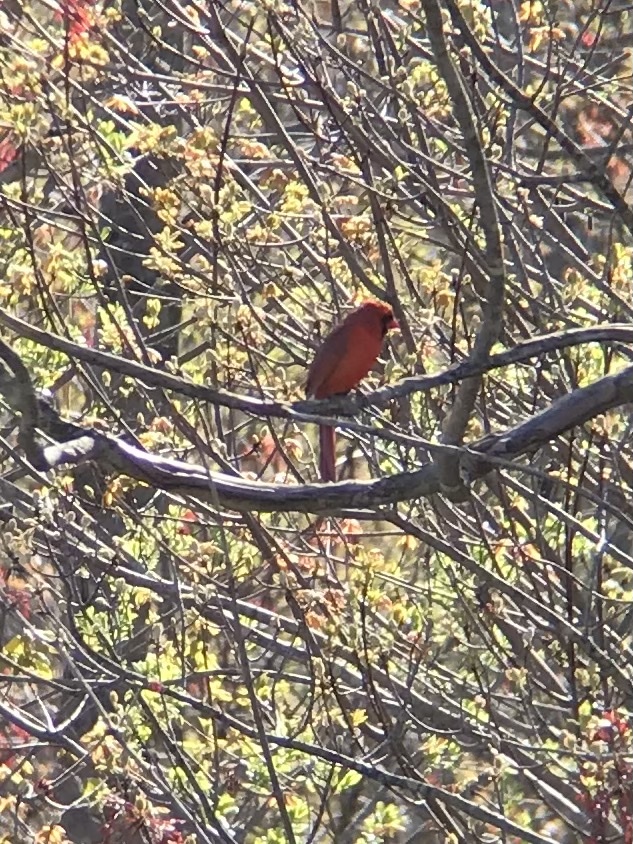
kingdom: Animalia
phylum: Chordata
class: Aves
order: Passeriformes
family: Cardinalidae
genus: Cardinalis
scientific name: Cardinalis cardinalis
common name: Northern cardinal
